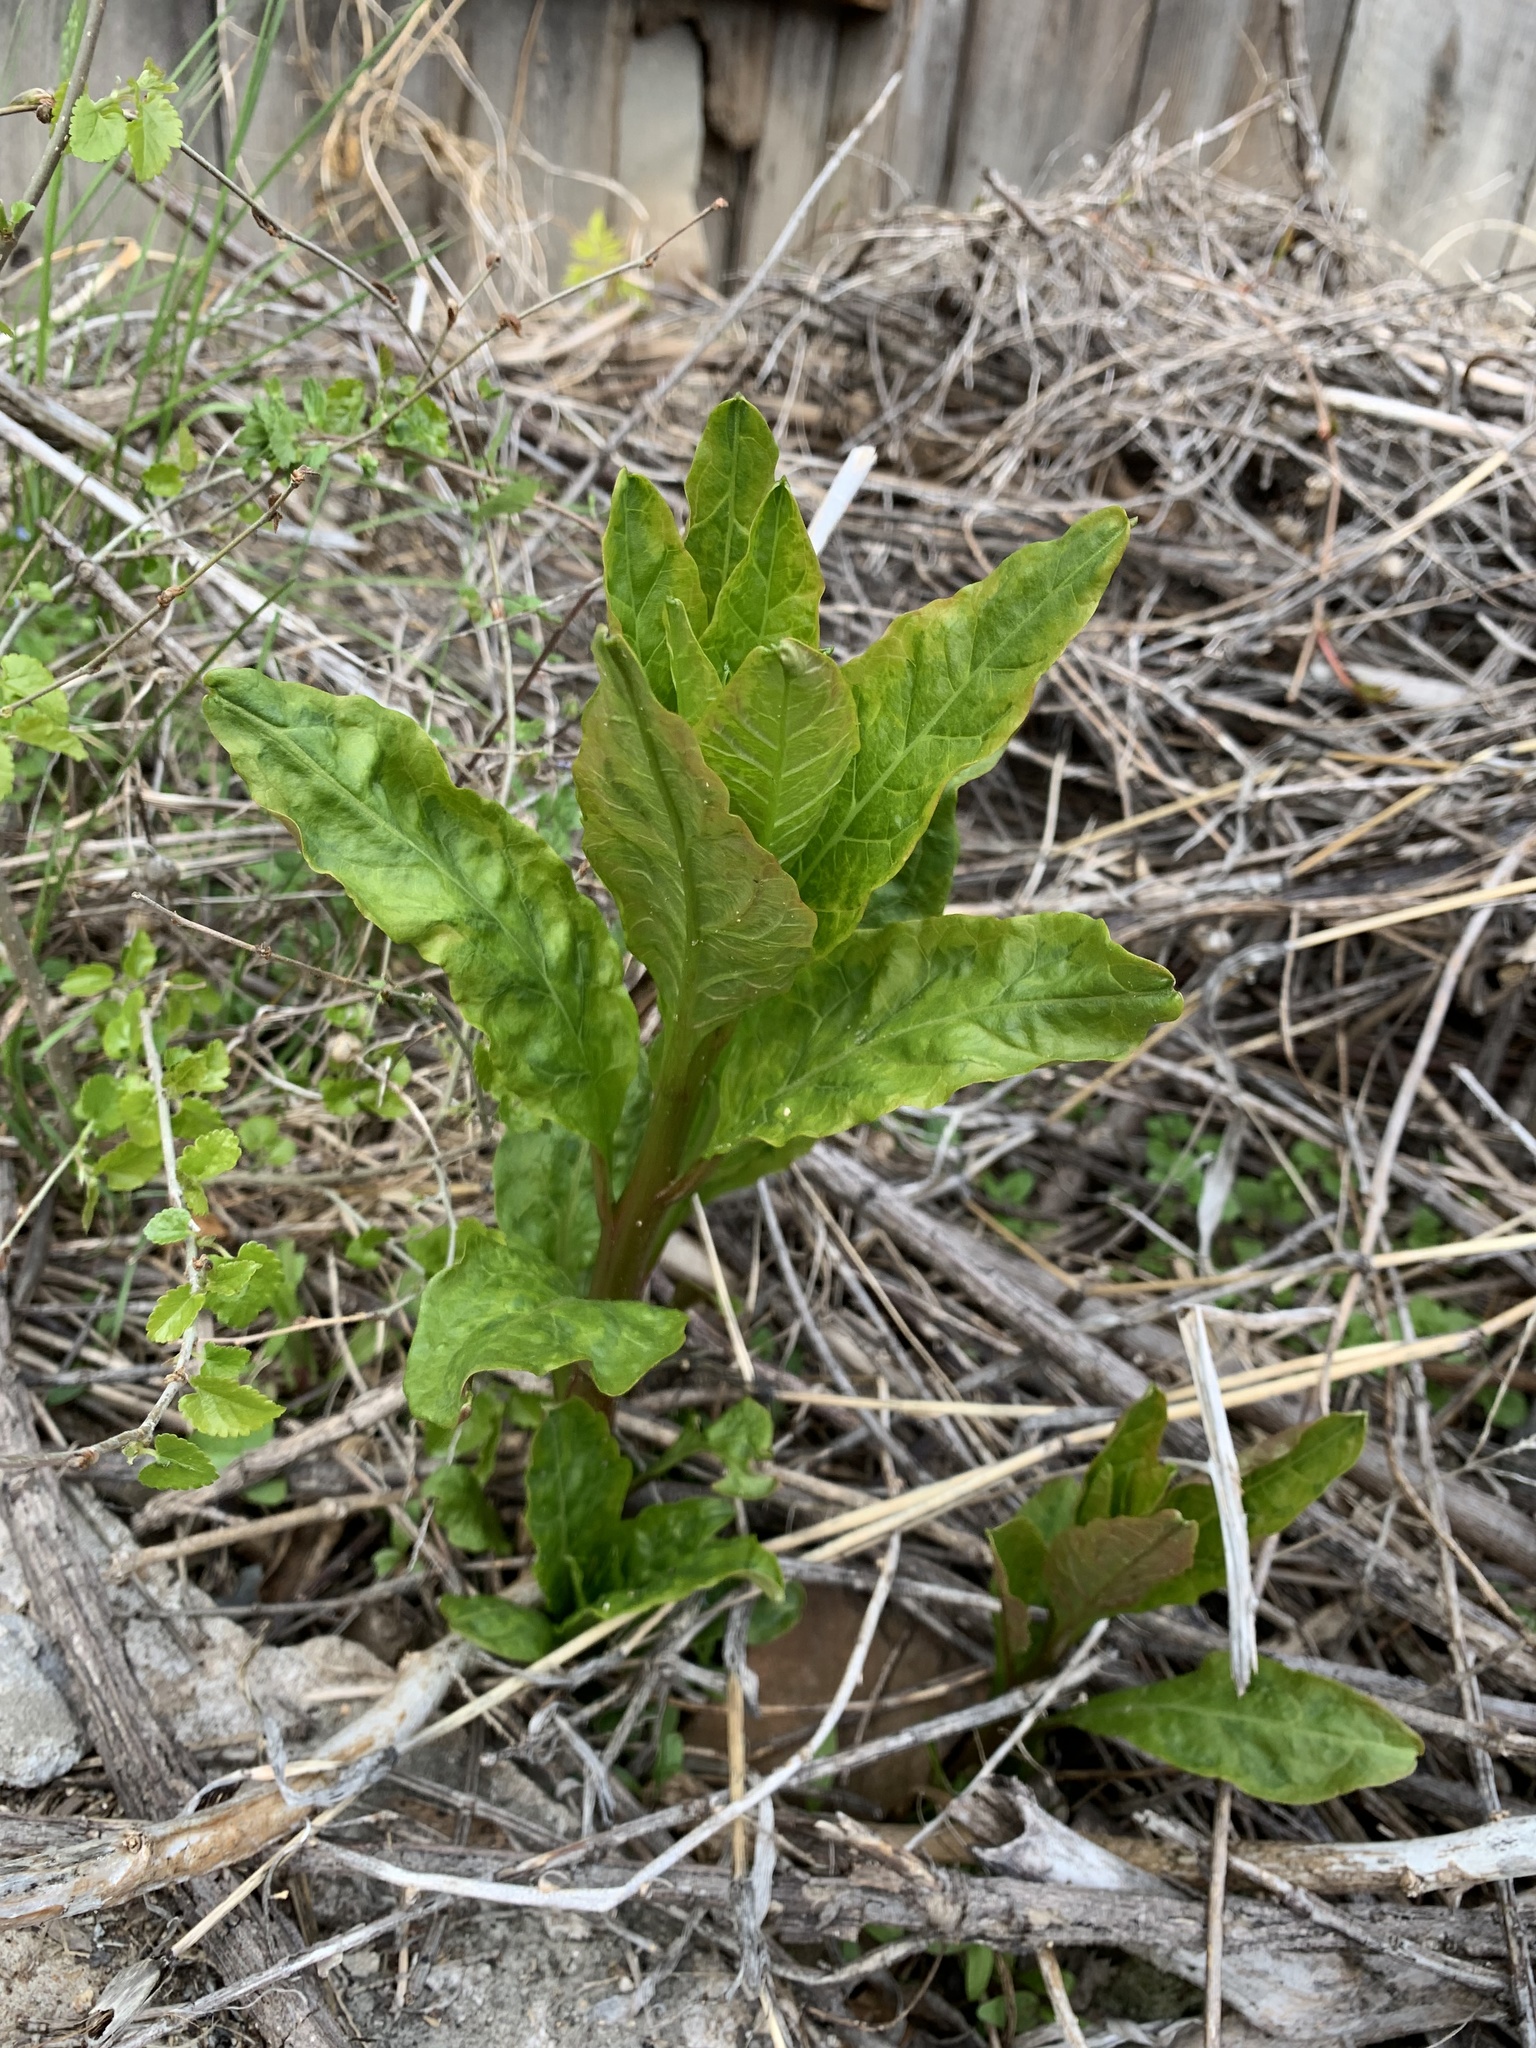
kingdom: Plantae
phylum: Tracheophyta
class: Magnoliopsida
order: Caryophyllales
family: Phytolaccaceae
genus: Phytolacca
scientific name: Phytolacca americana
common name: American pokeweed
